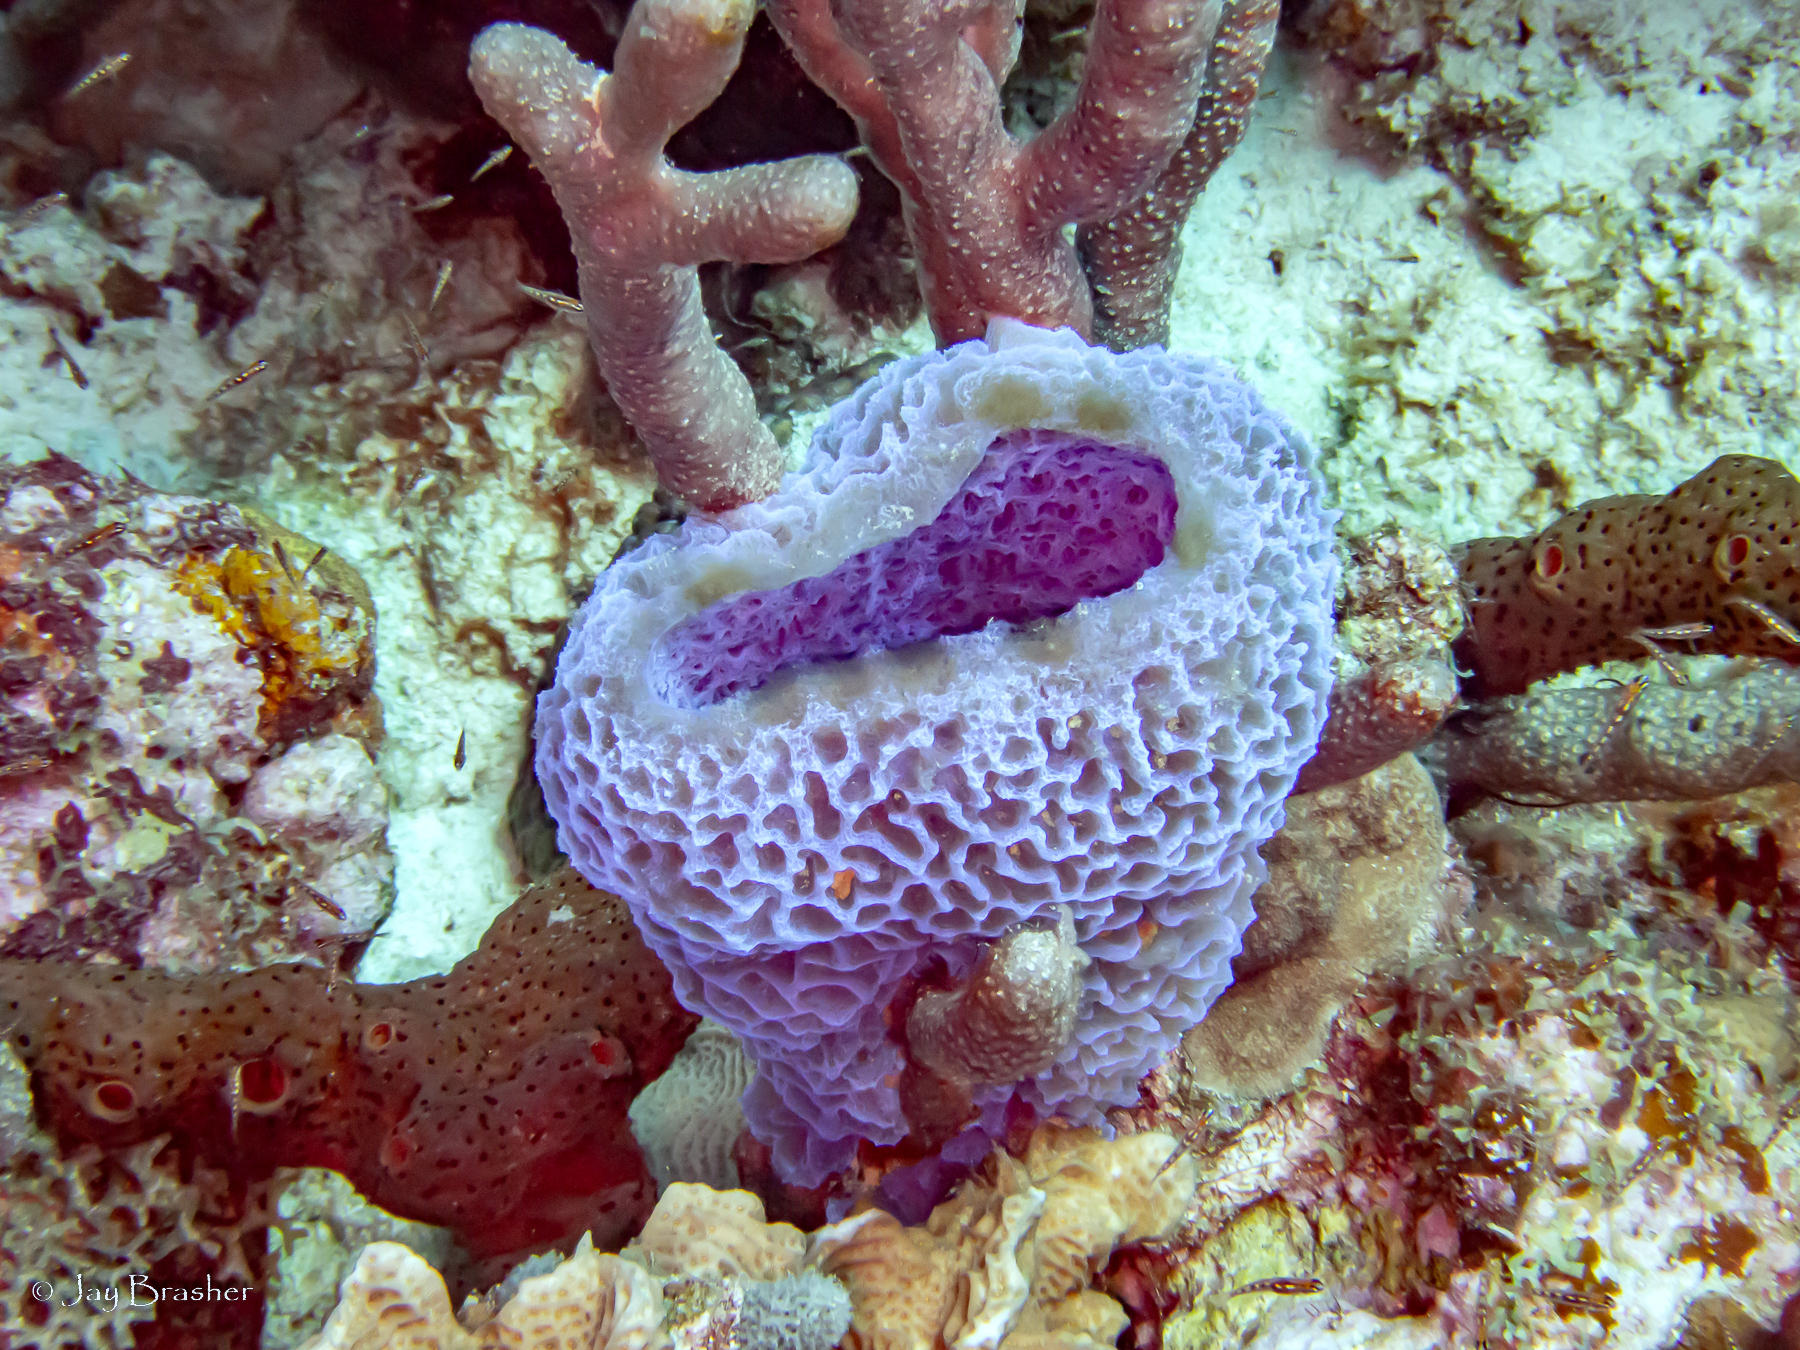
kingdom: Animalia
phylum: Porifera
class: Demospongiae
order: Haplosclerida
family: Callyspongiidae
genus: Callyspongia
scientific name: Callyspongia plicifera
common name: Azure vase sponge
